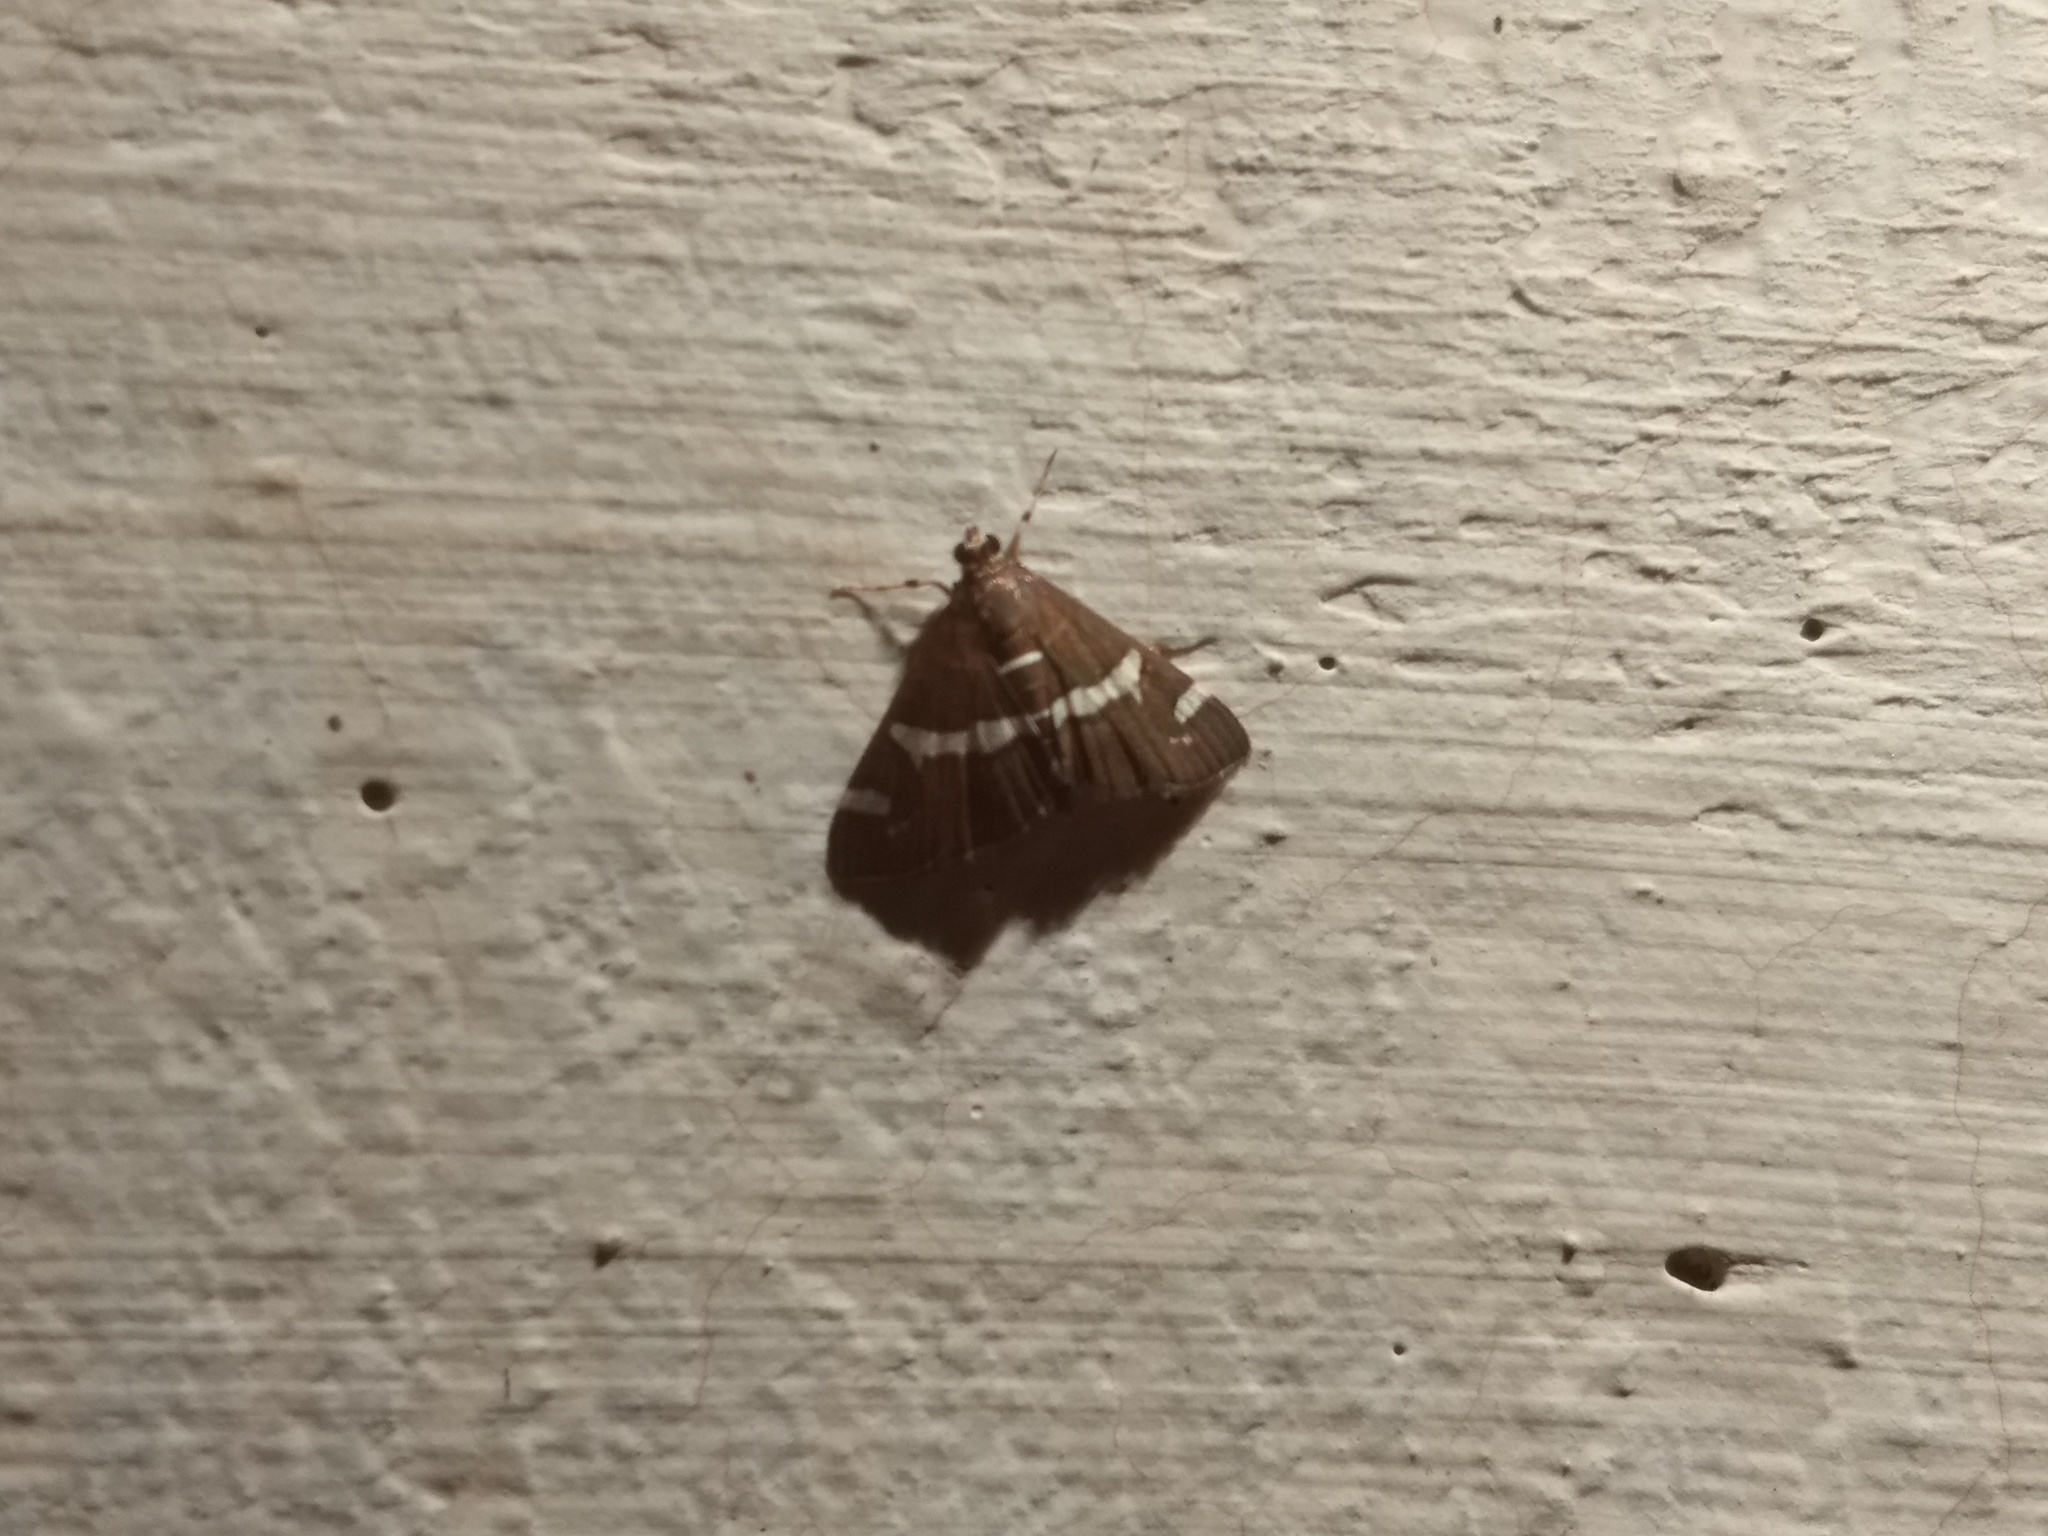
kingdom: Animalia
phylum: Arthropoda
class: Insecta
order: Lepidoptera
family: Crambidae
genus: Spoladea
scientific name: Spoladea recurvalis
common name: Beet webworm moth
